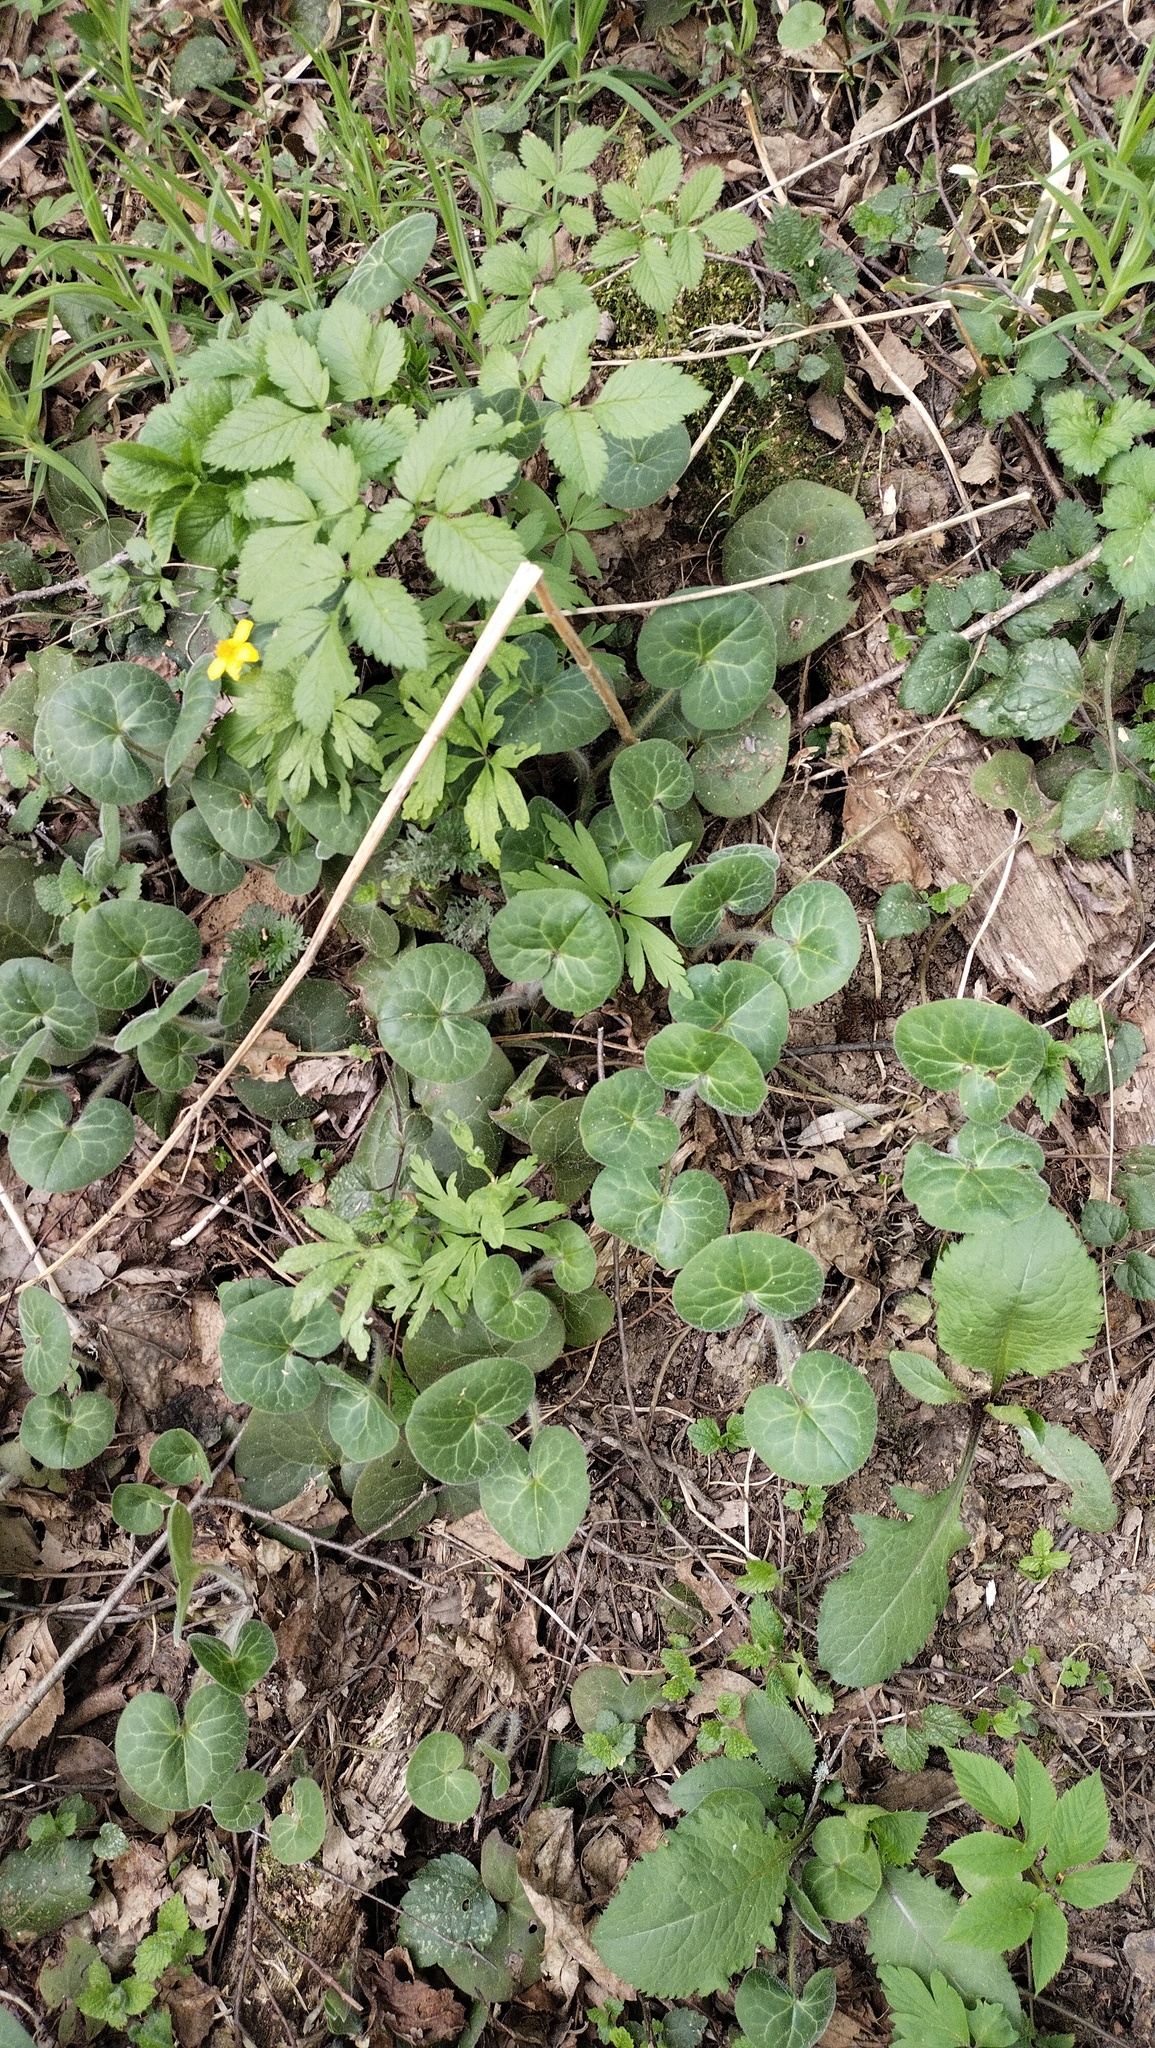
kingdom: Plantae
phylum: Tracheophyta
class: Magnoliopsida
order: Piperales
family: Aristolochiaceae
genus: Asarum
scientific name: Asarum europaeum
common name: Asarabacca
